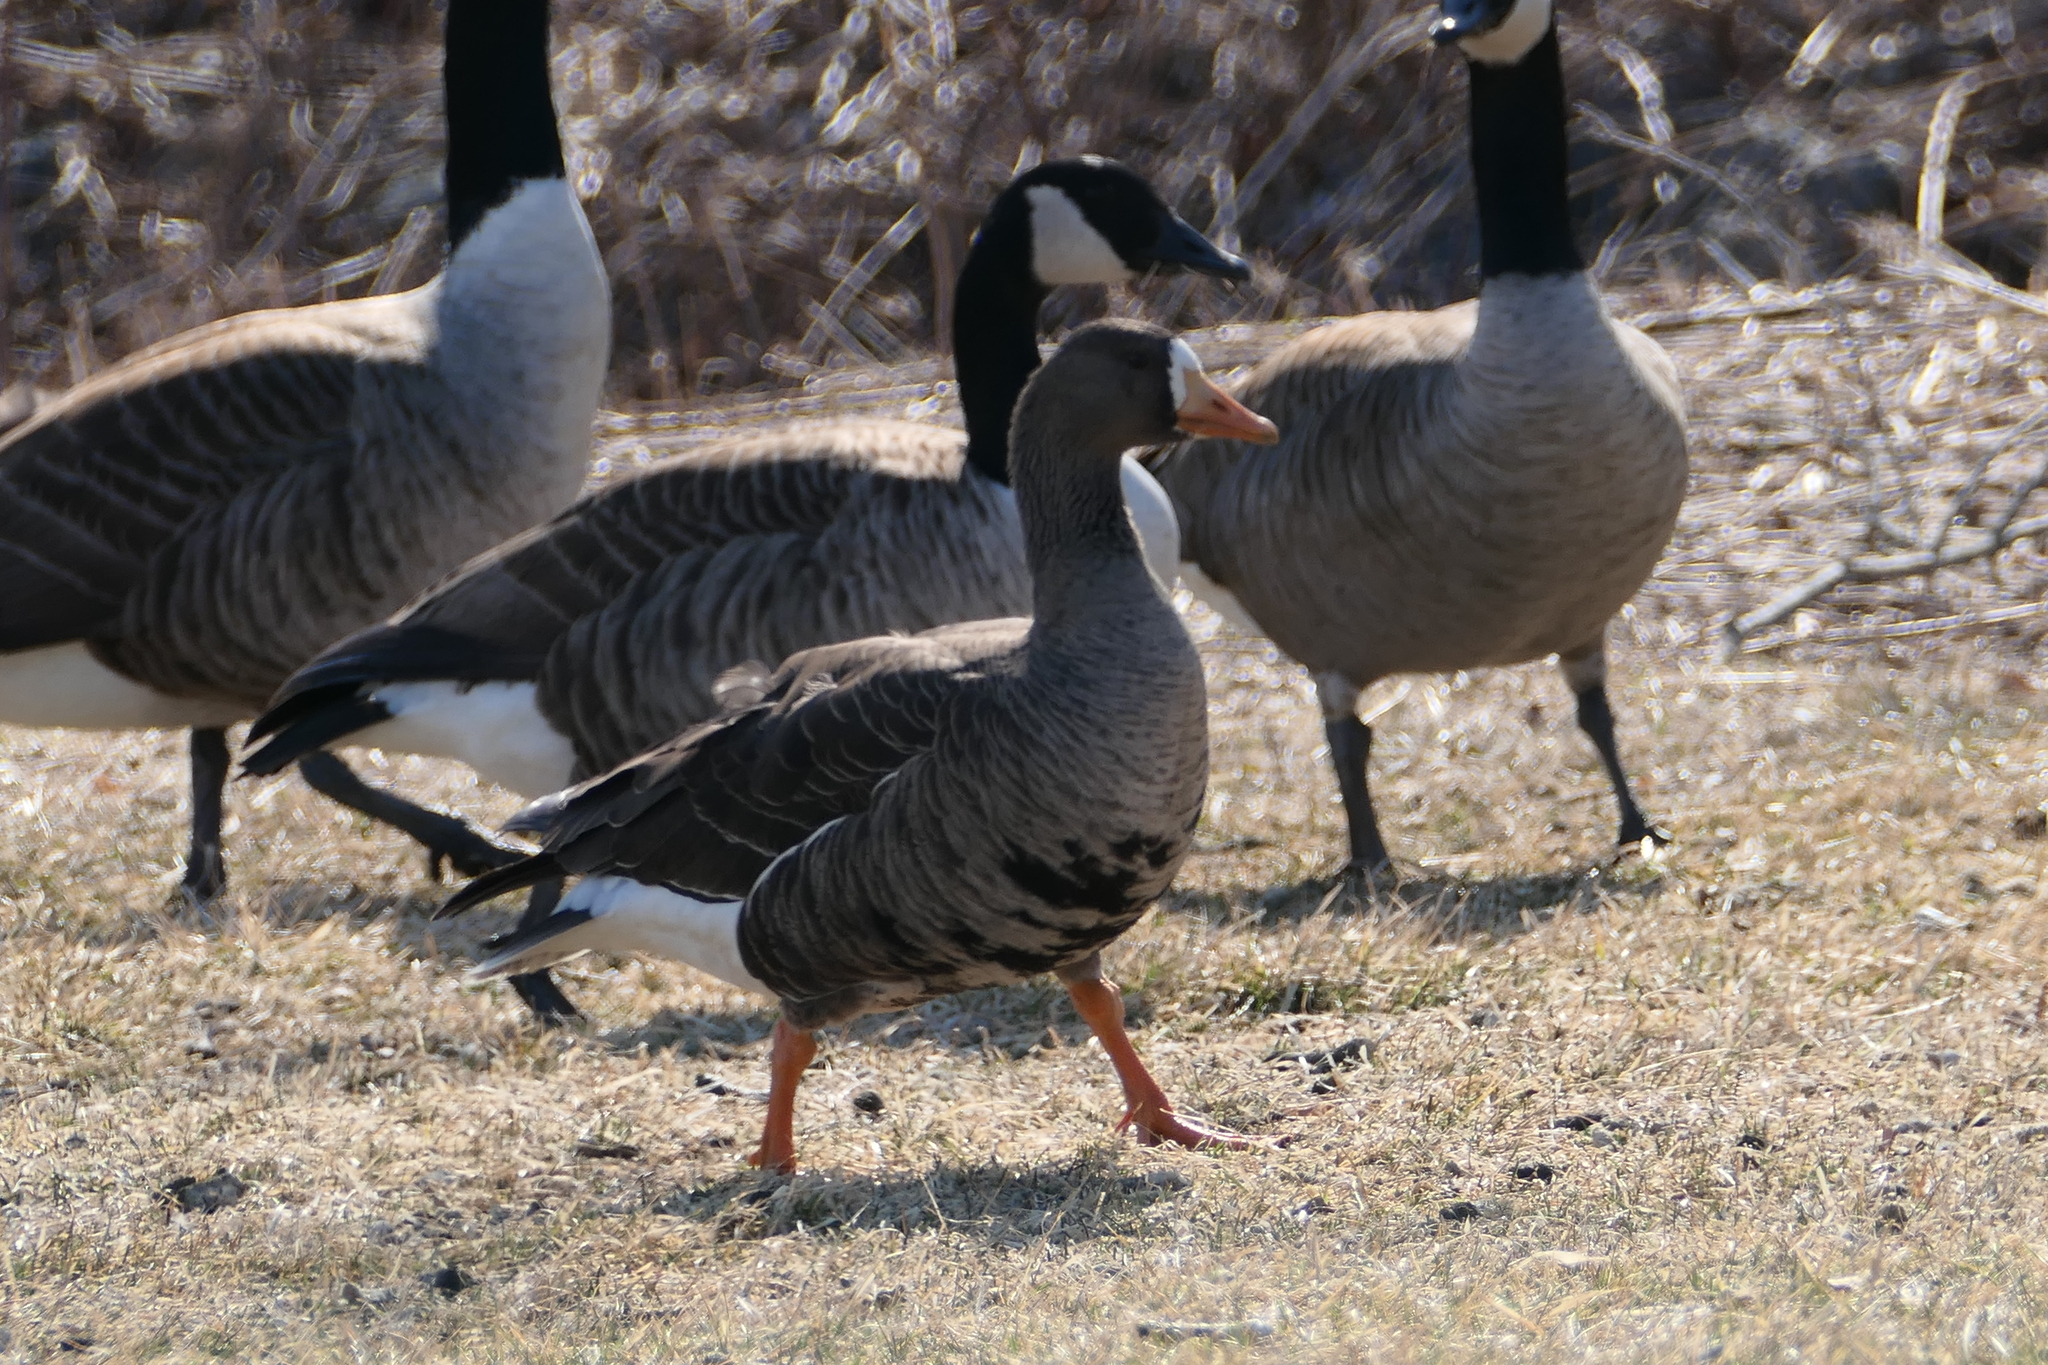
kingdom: Animalia
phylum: Chordata
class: Aves
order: Anseriformes
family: Anatidae
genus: Branta
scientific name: Branta canadensis
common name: Canada goose
